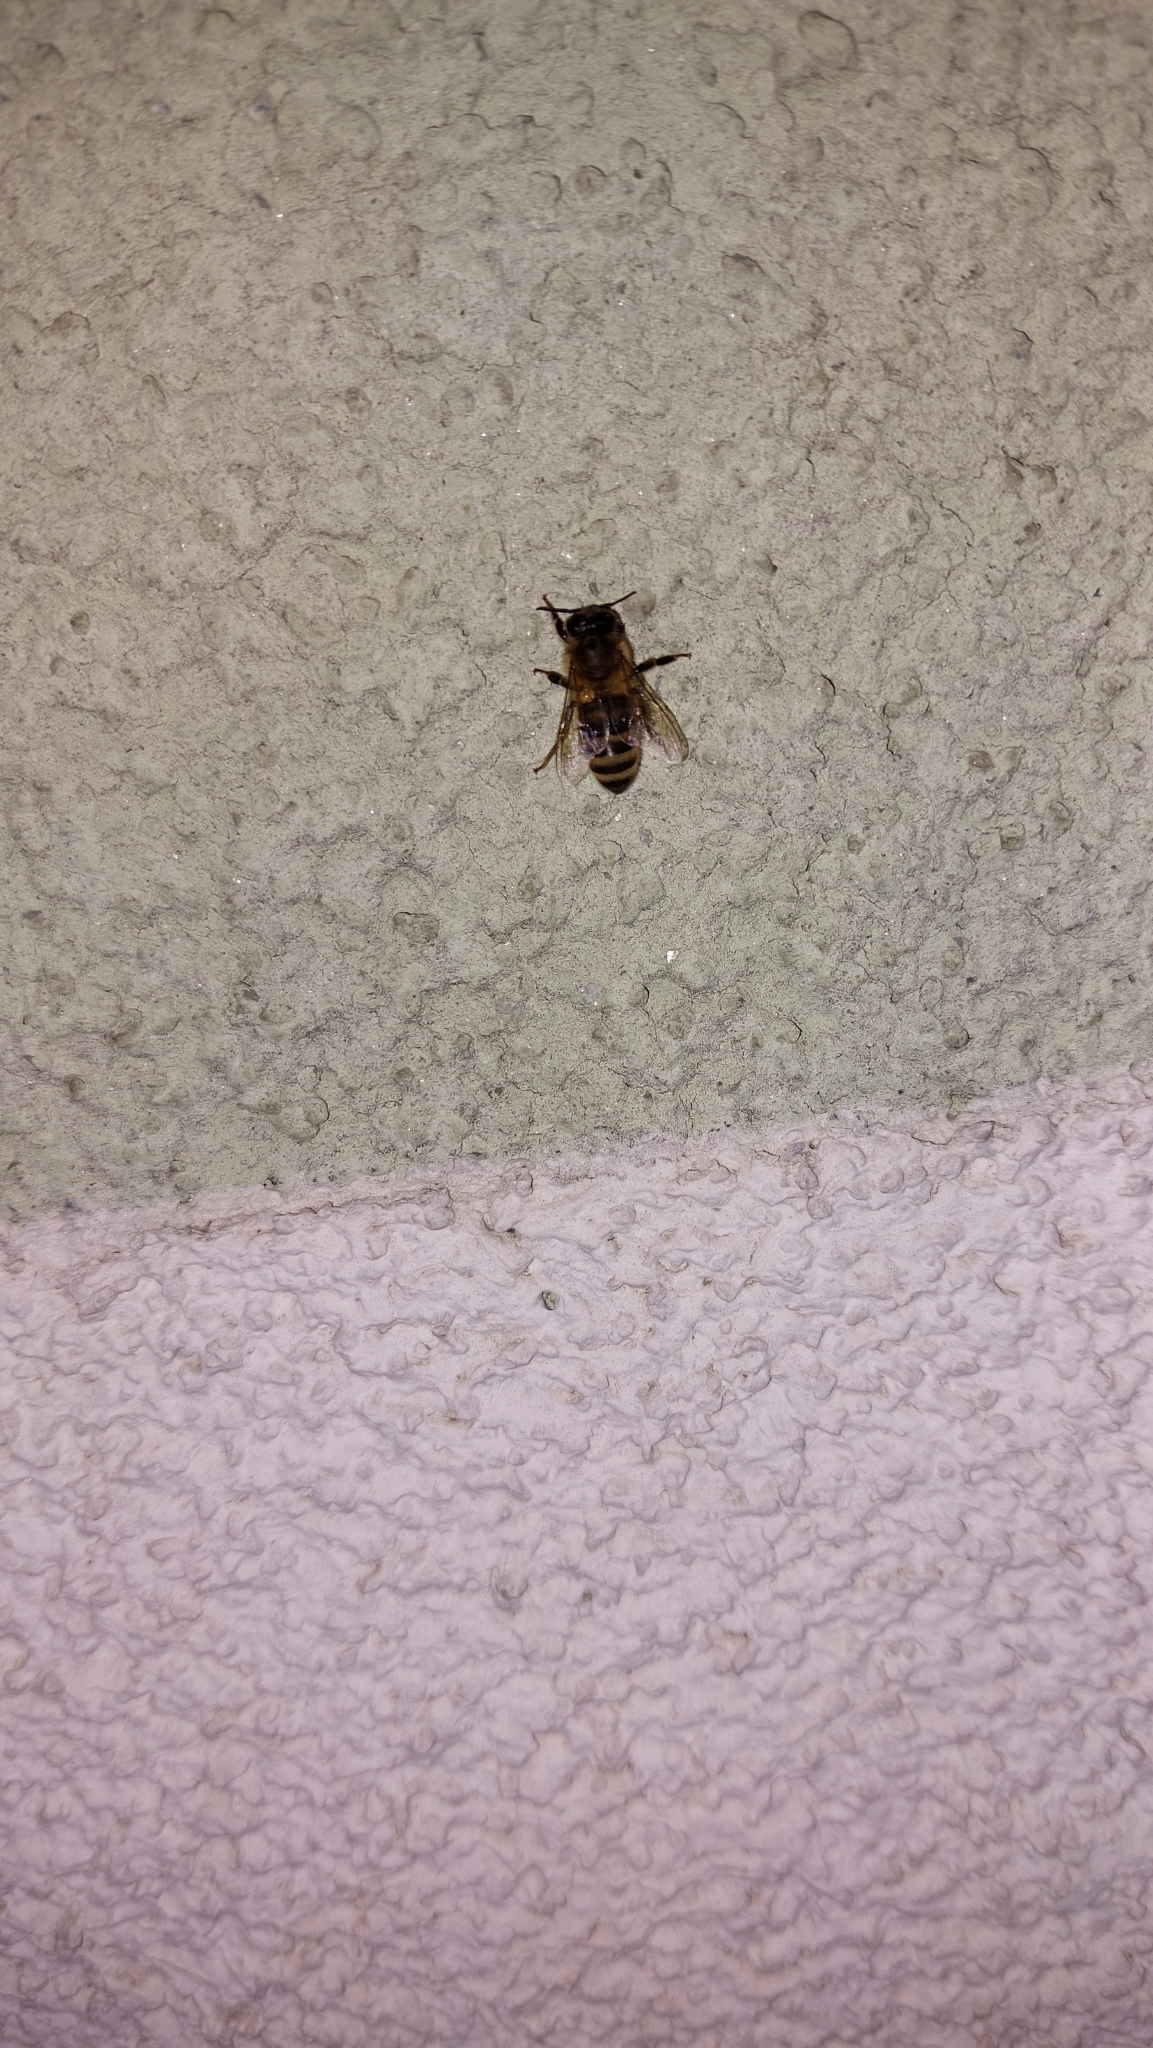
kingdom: Animalia
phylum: Arthropoda
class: Insecta
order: Hymenoptera
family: Apidae
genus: Apis
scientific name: Apis mellifera
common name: Honey bee
